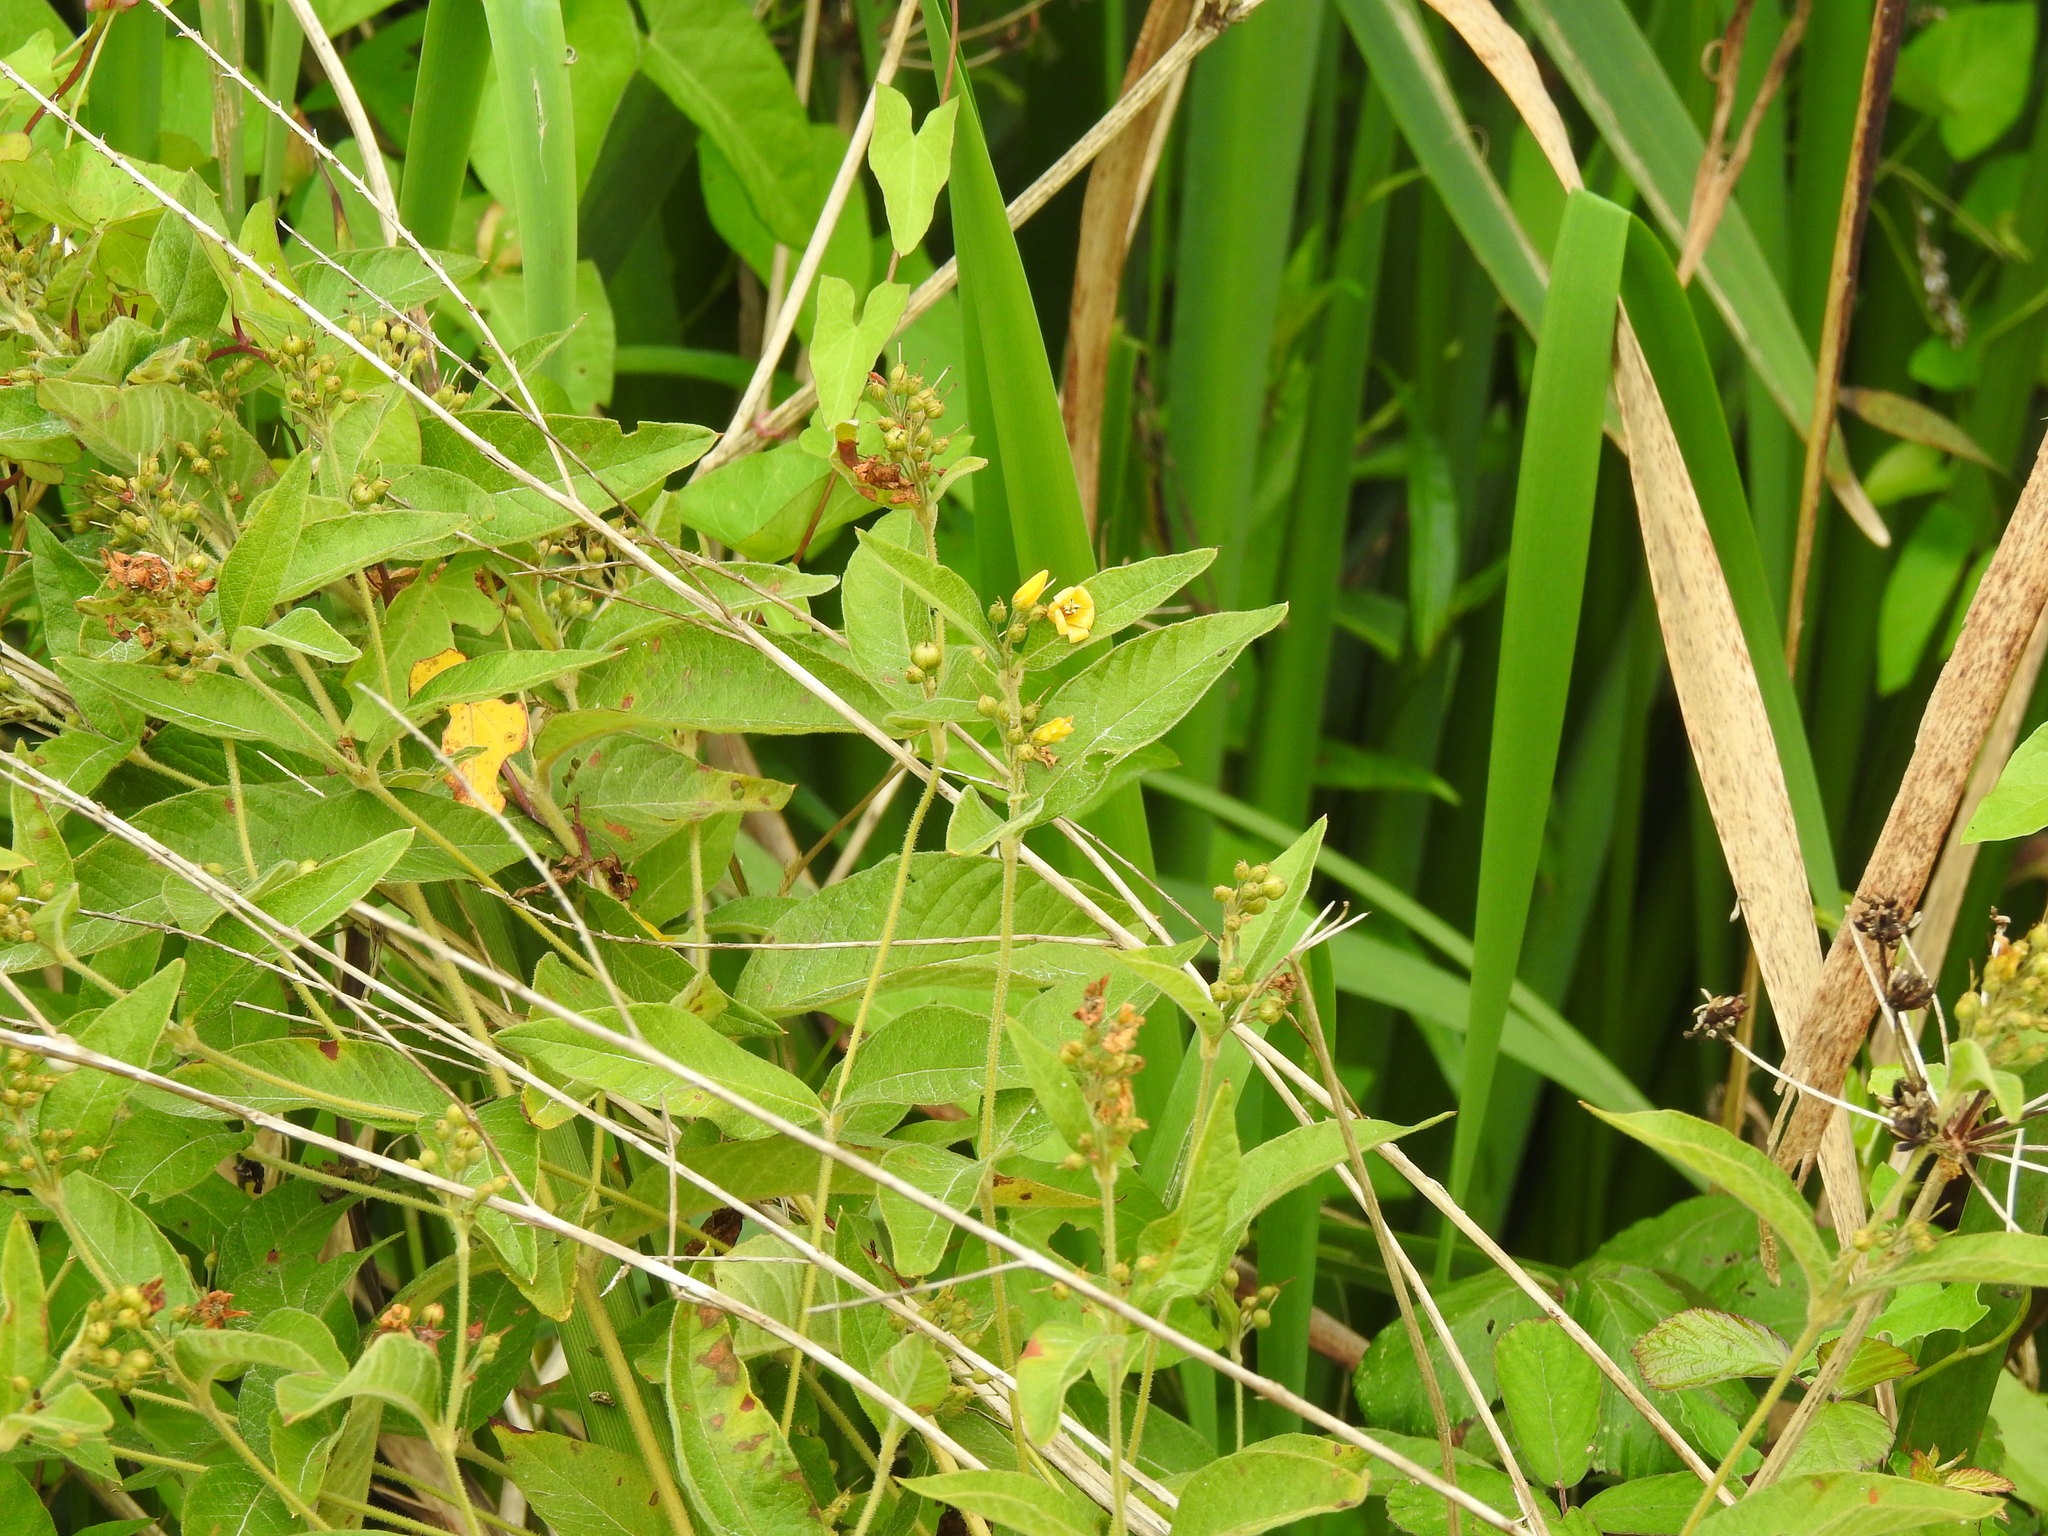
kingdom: Plantae
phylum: Tracheophyta
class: Magnoliopsida
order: Ericales
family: Primulaceae
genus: Lysimachia
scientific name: Lysimachia vulgaris
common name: Yellow loosestrife
